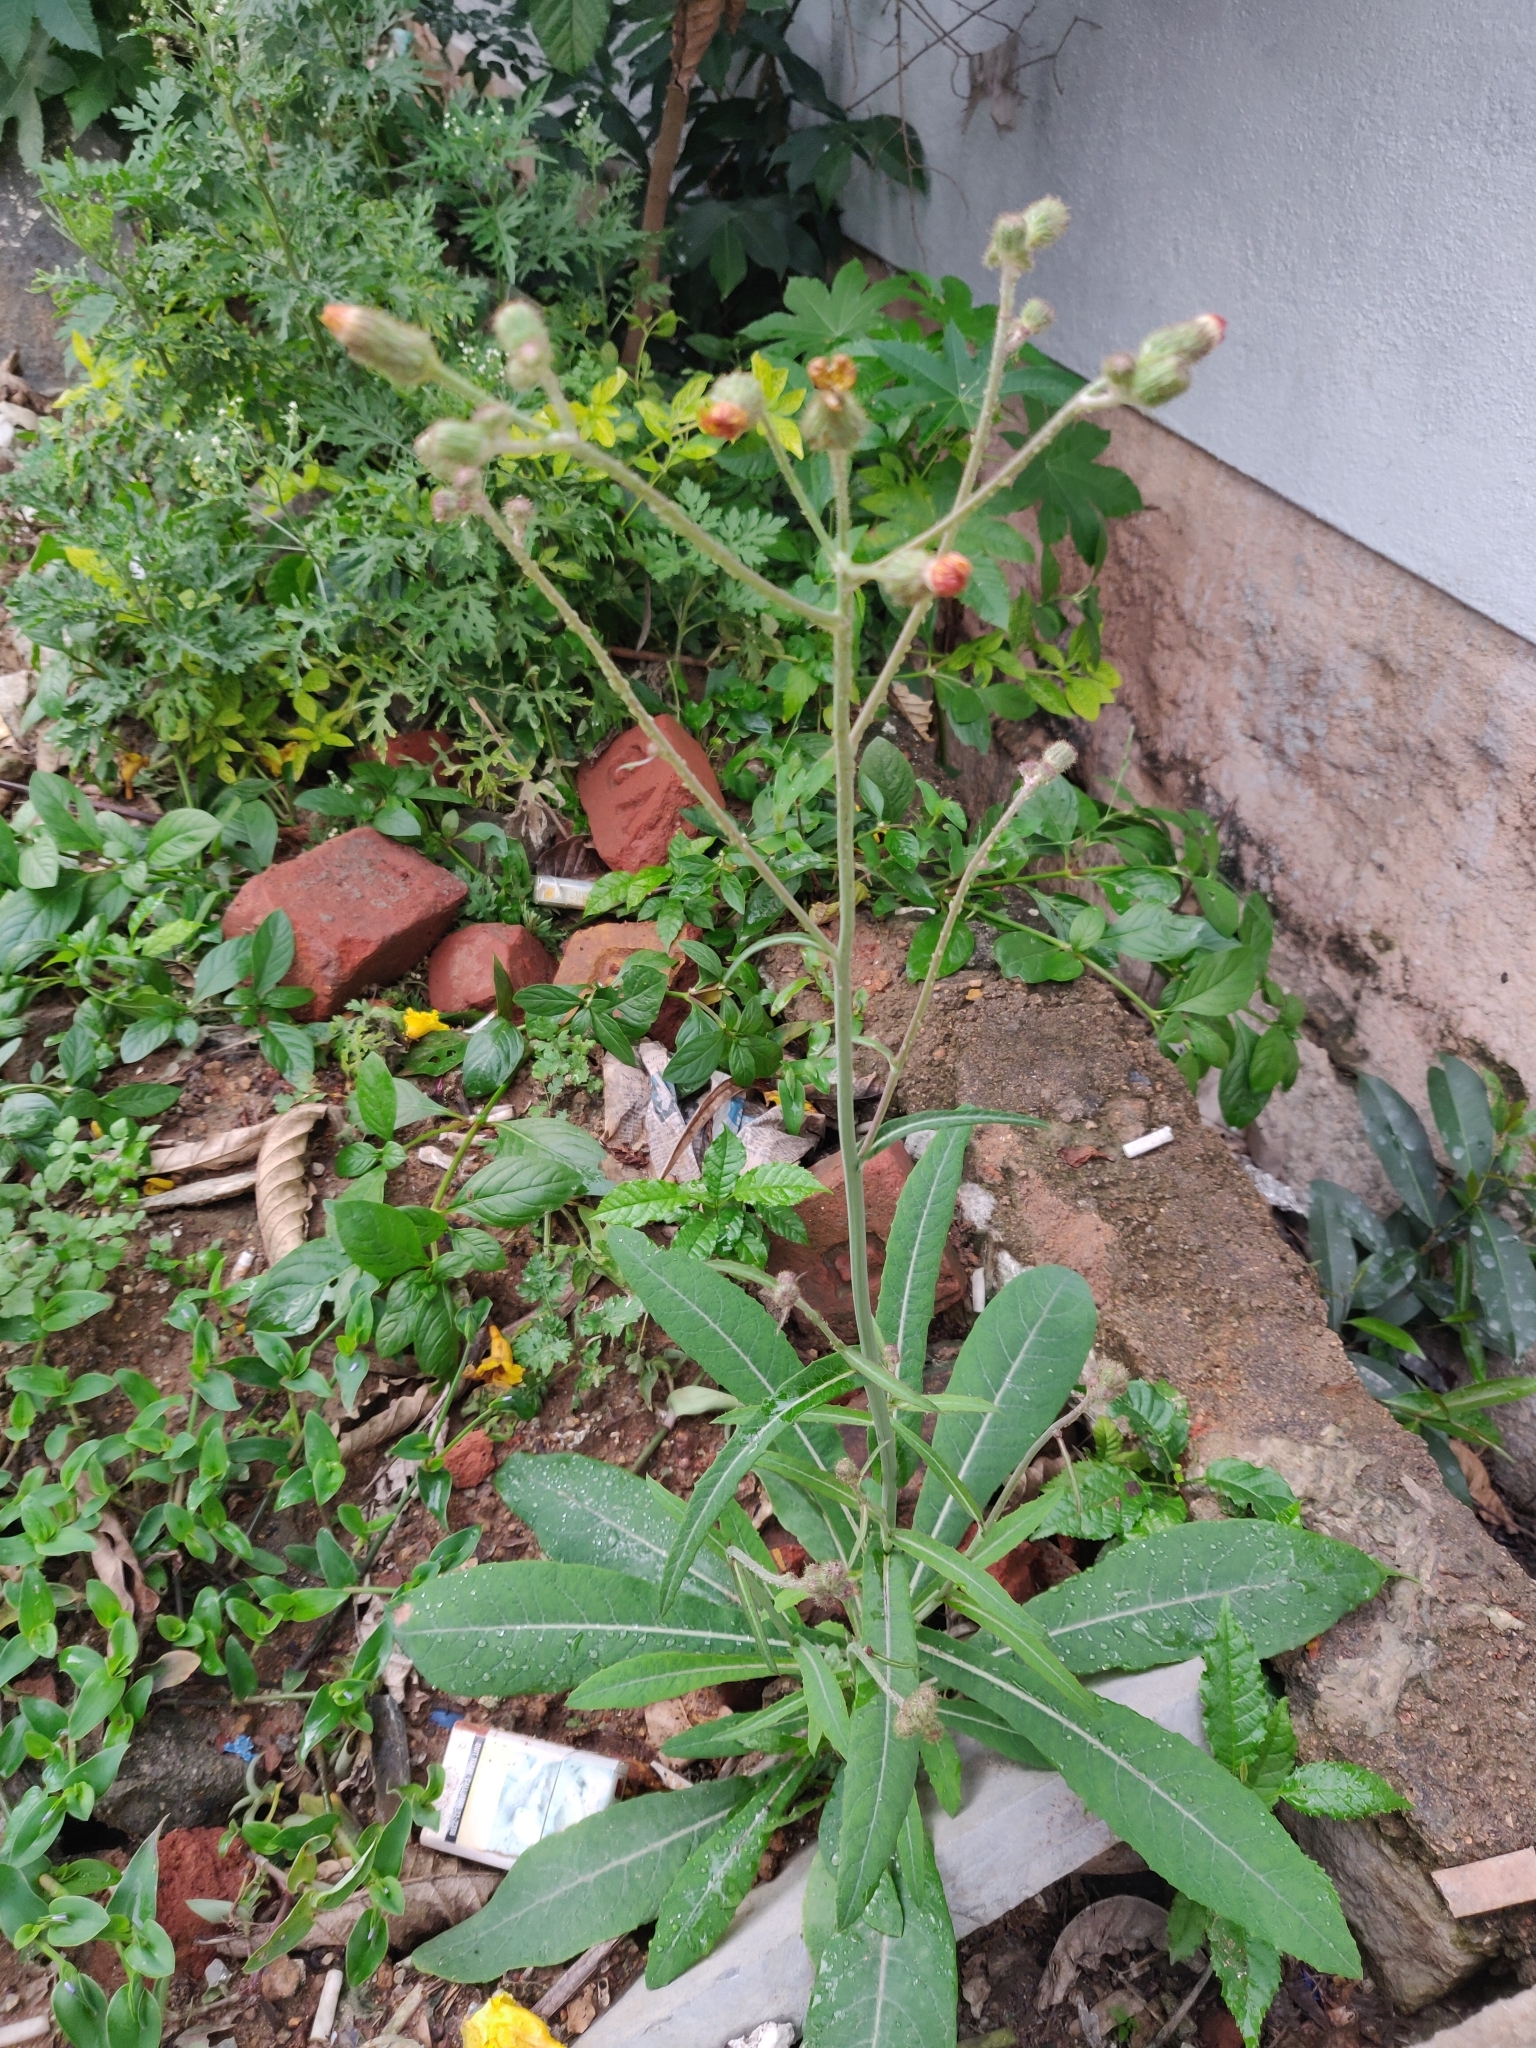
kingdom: Plantae
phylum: Tracheophyta
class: Magnoliopsida
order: Asterales
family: Asteraceae
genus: Sonchus
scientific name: Sonchus wightianus
